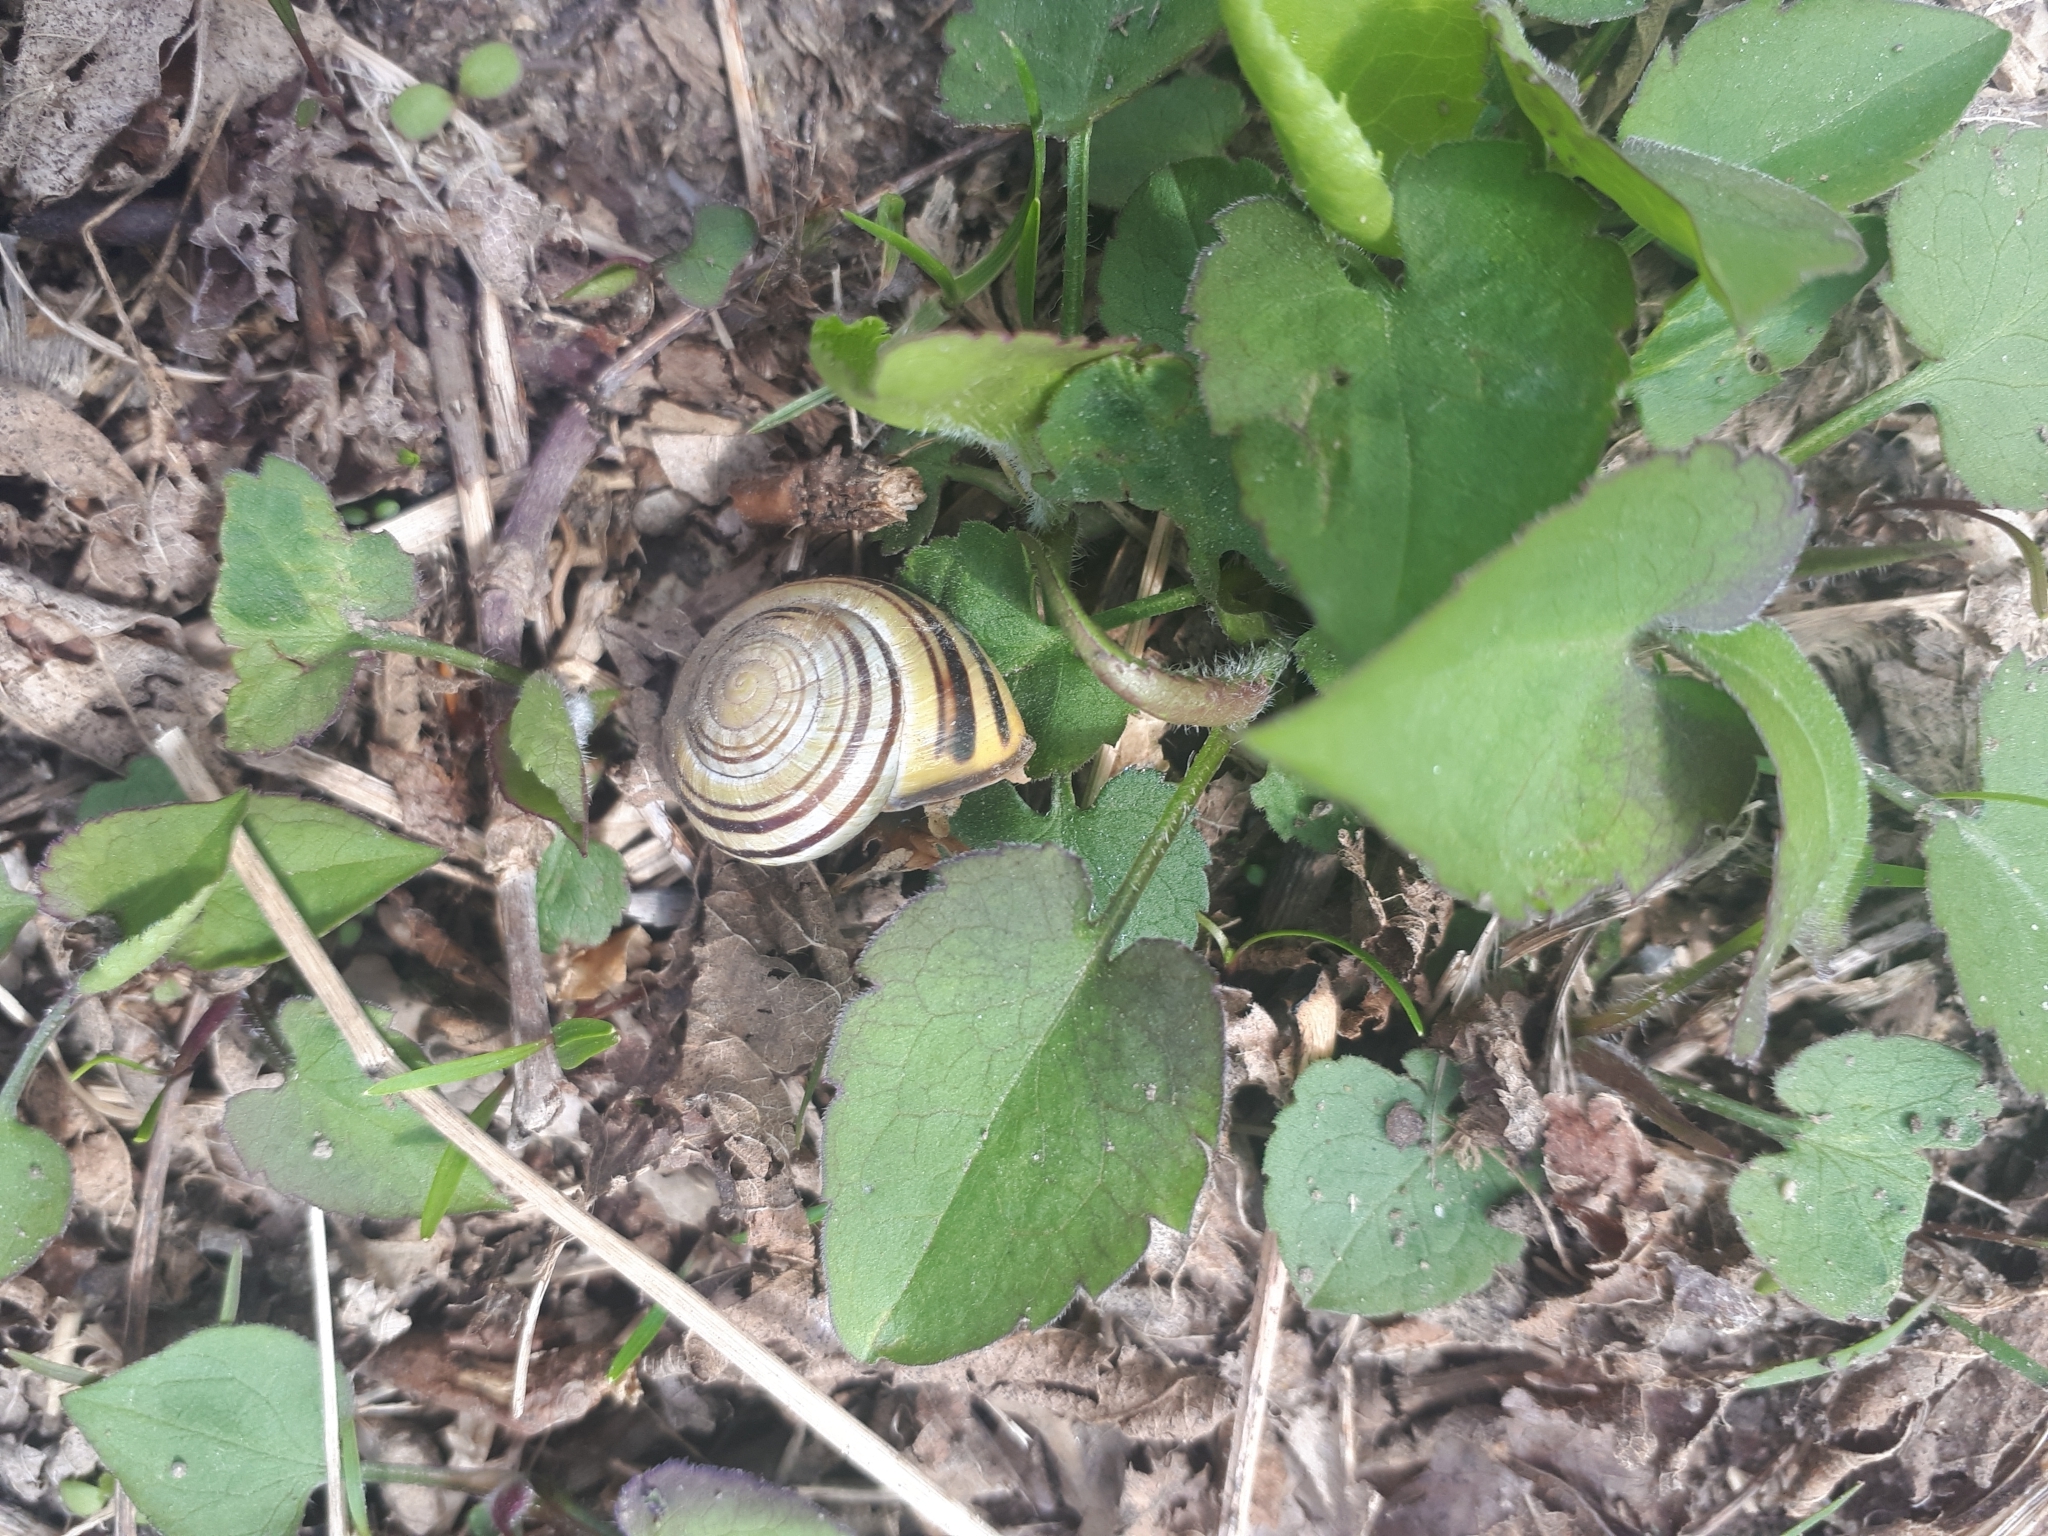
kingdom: Animalia
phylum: Mollusca
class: Gastropoda
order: Stylommatophora
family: Helicidae
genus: Cepaea
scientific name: Cepaea nemoralis
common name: Grovesnail
